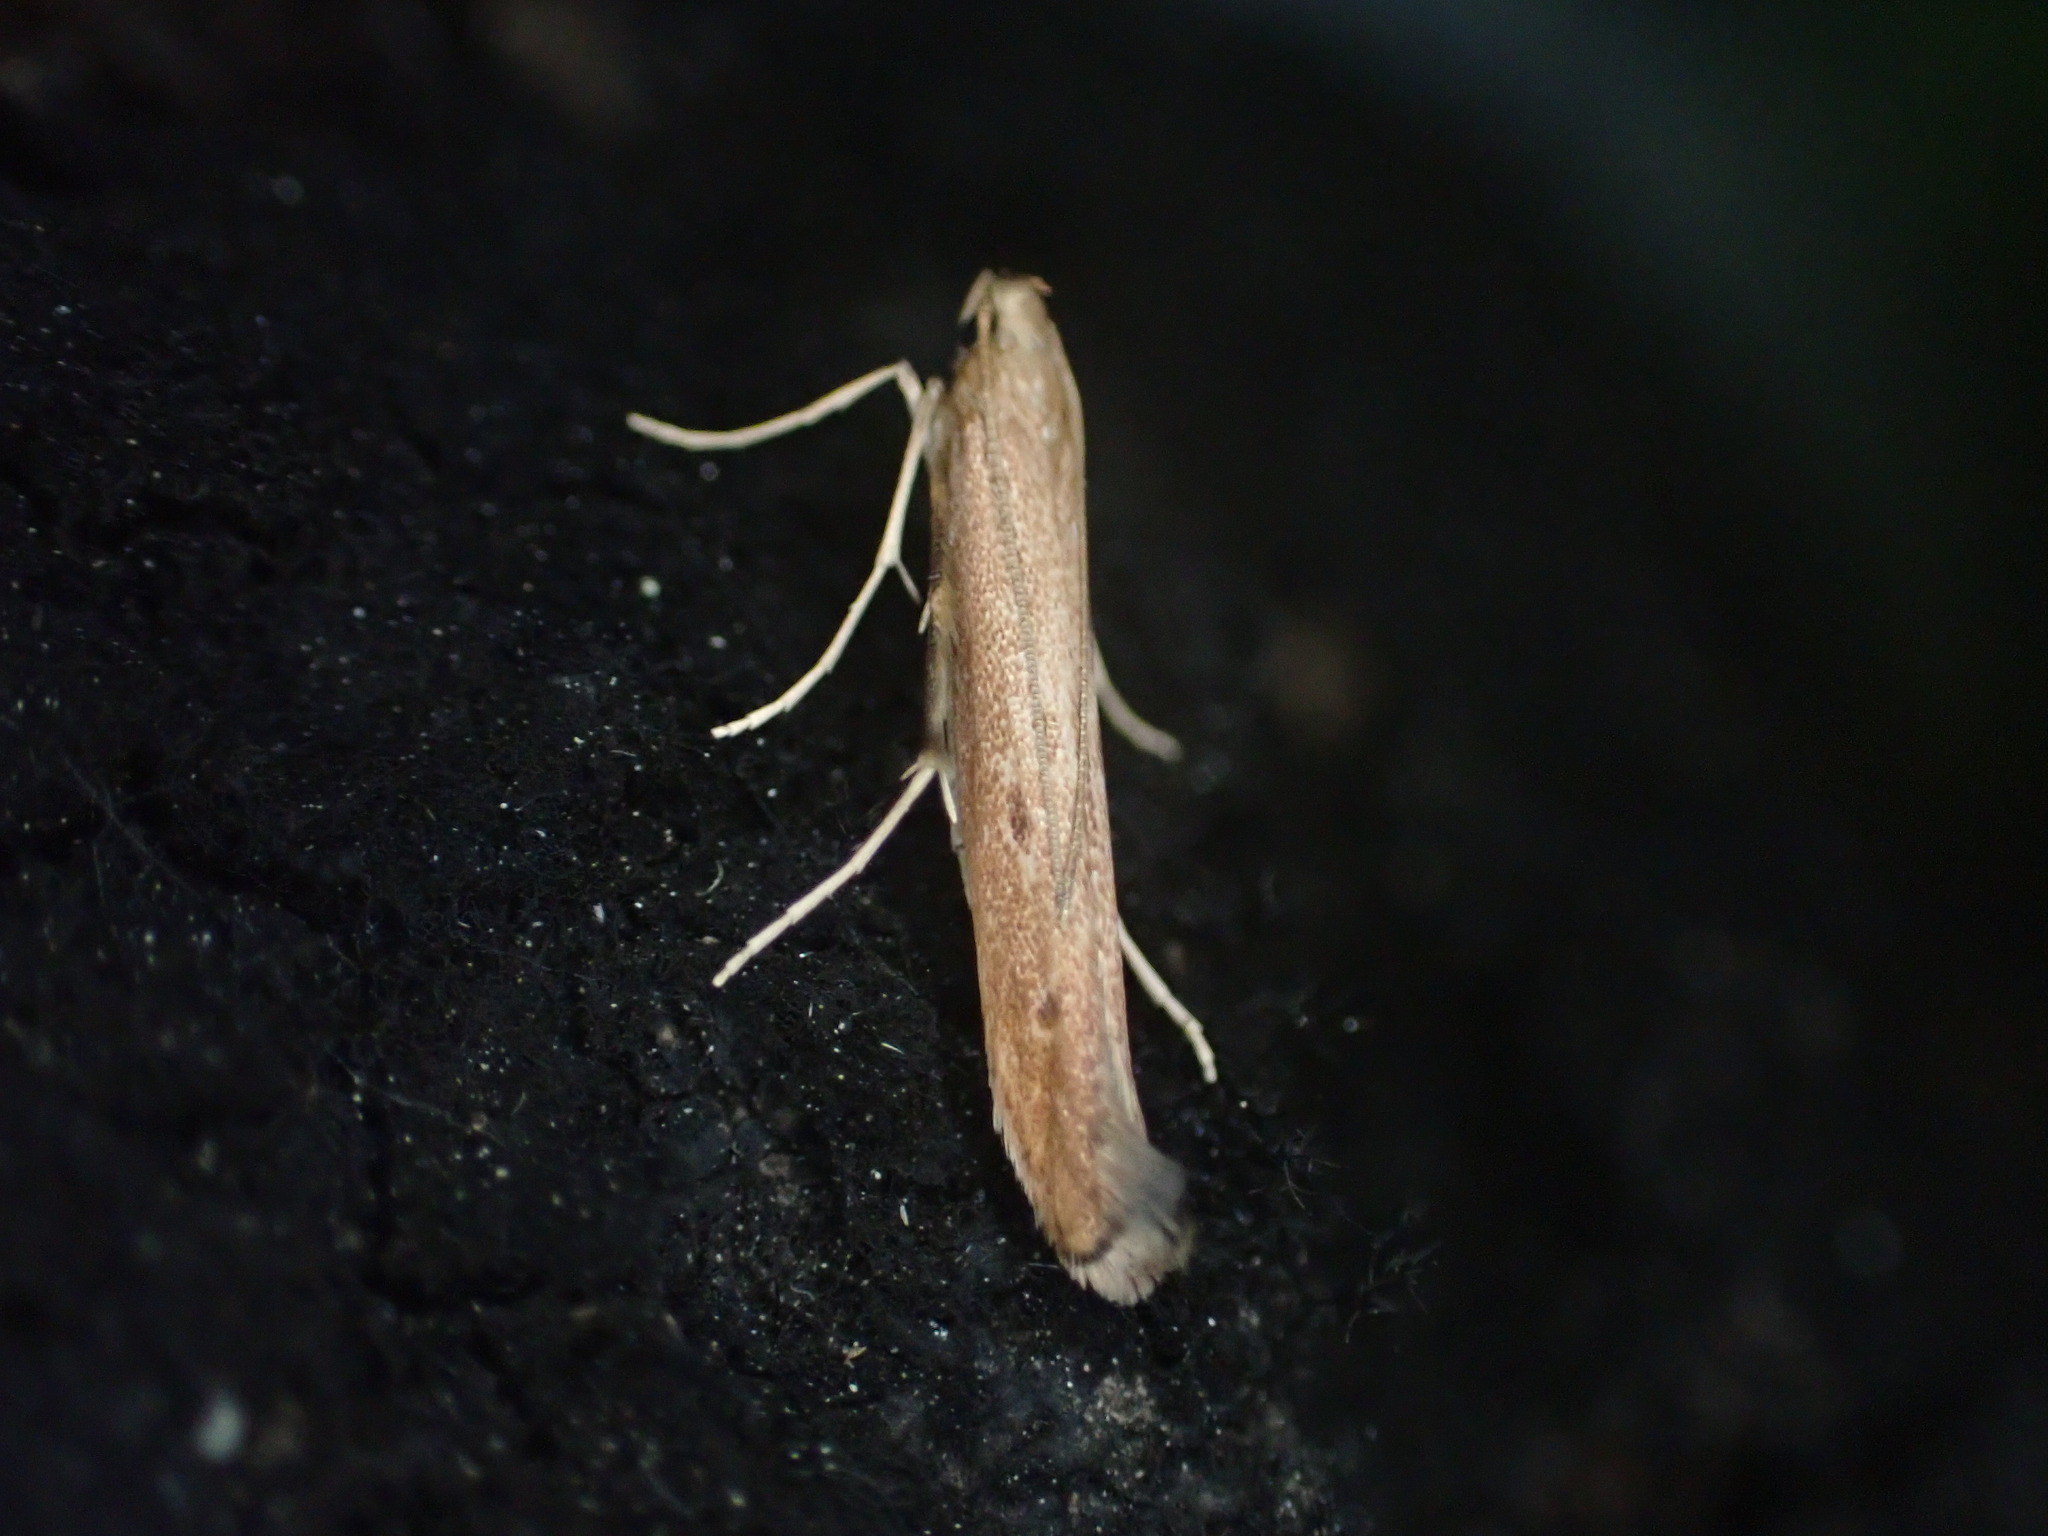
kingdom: Animalia
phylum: Arthropoda
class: Insecta
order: Lepidoptera
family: Batrachedridae
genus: Batrachedra
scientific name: Batrachedra agaura
